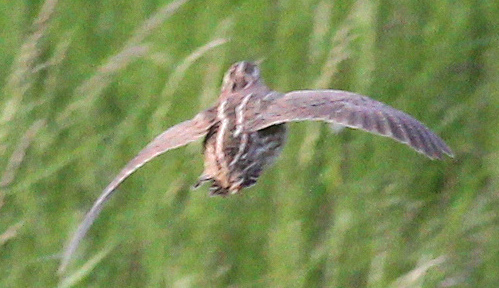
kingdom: Animalia
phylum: Chordata
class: Aves
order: Galliformes
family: Phasianidae
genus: Coturnix
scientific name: Coturnix coturnix
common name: Common quail
